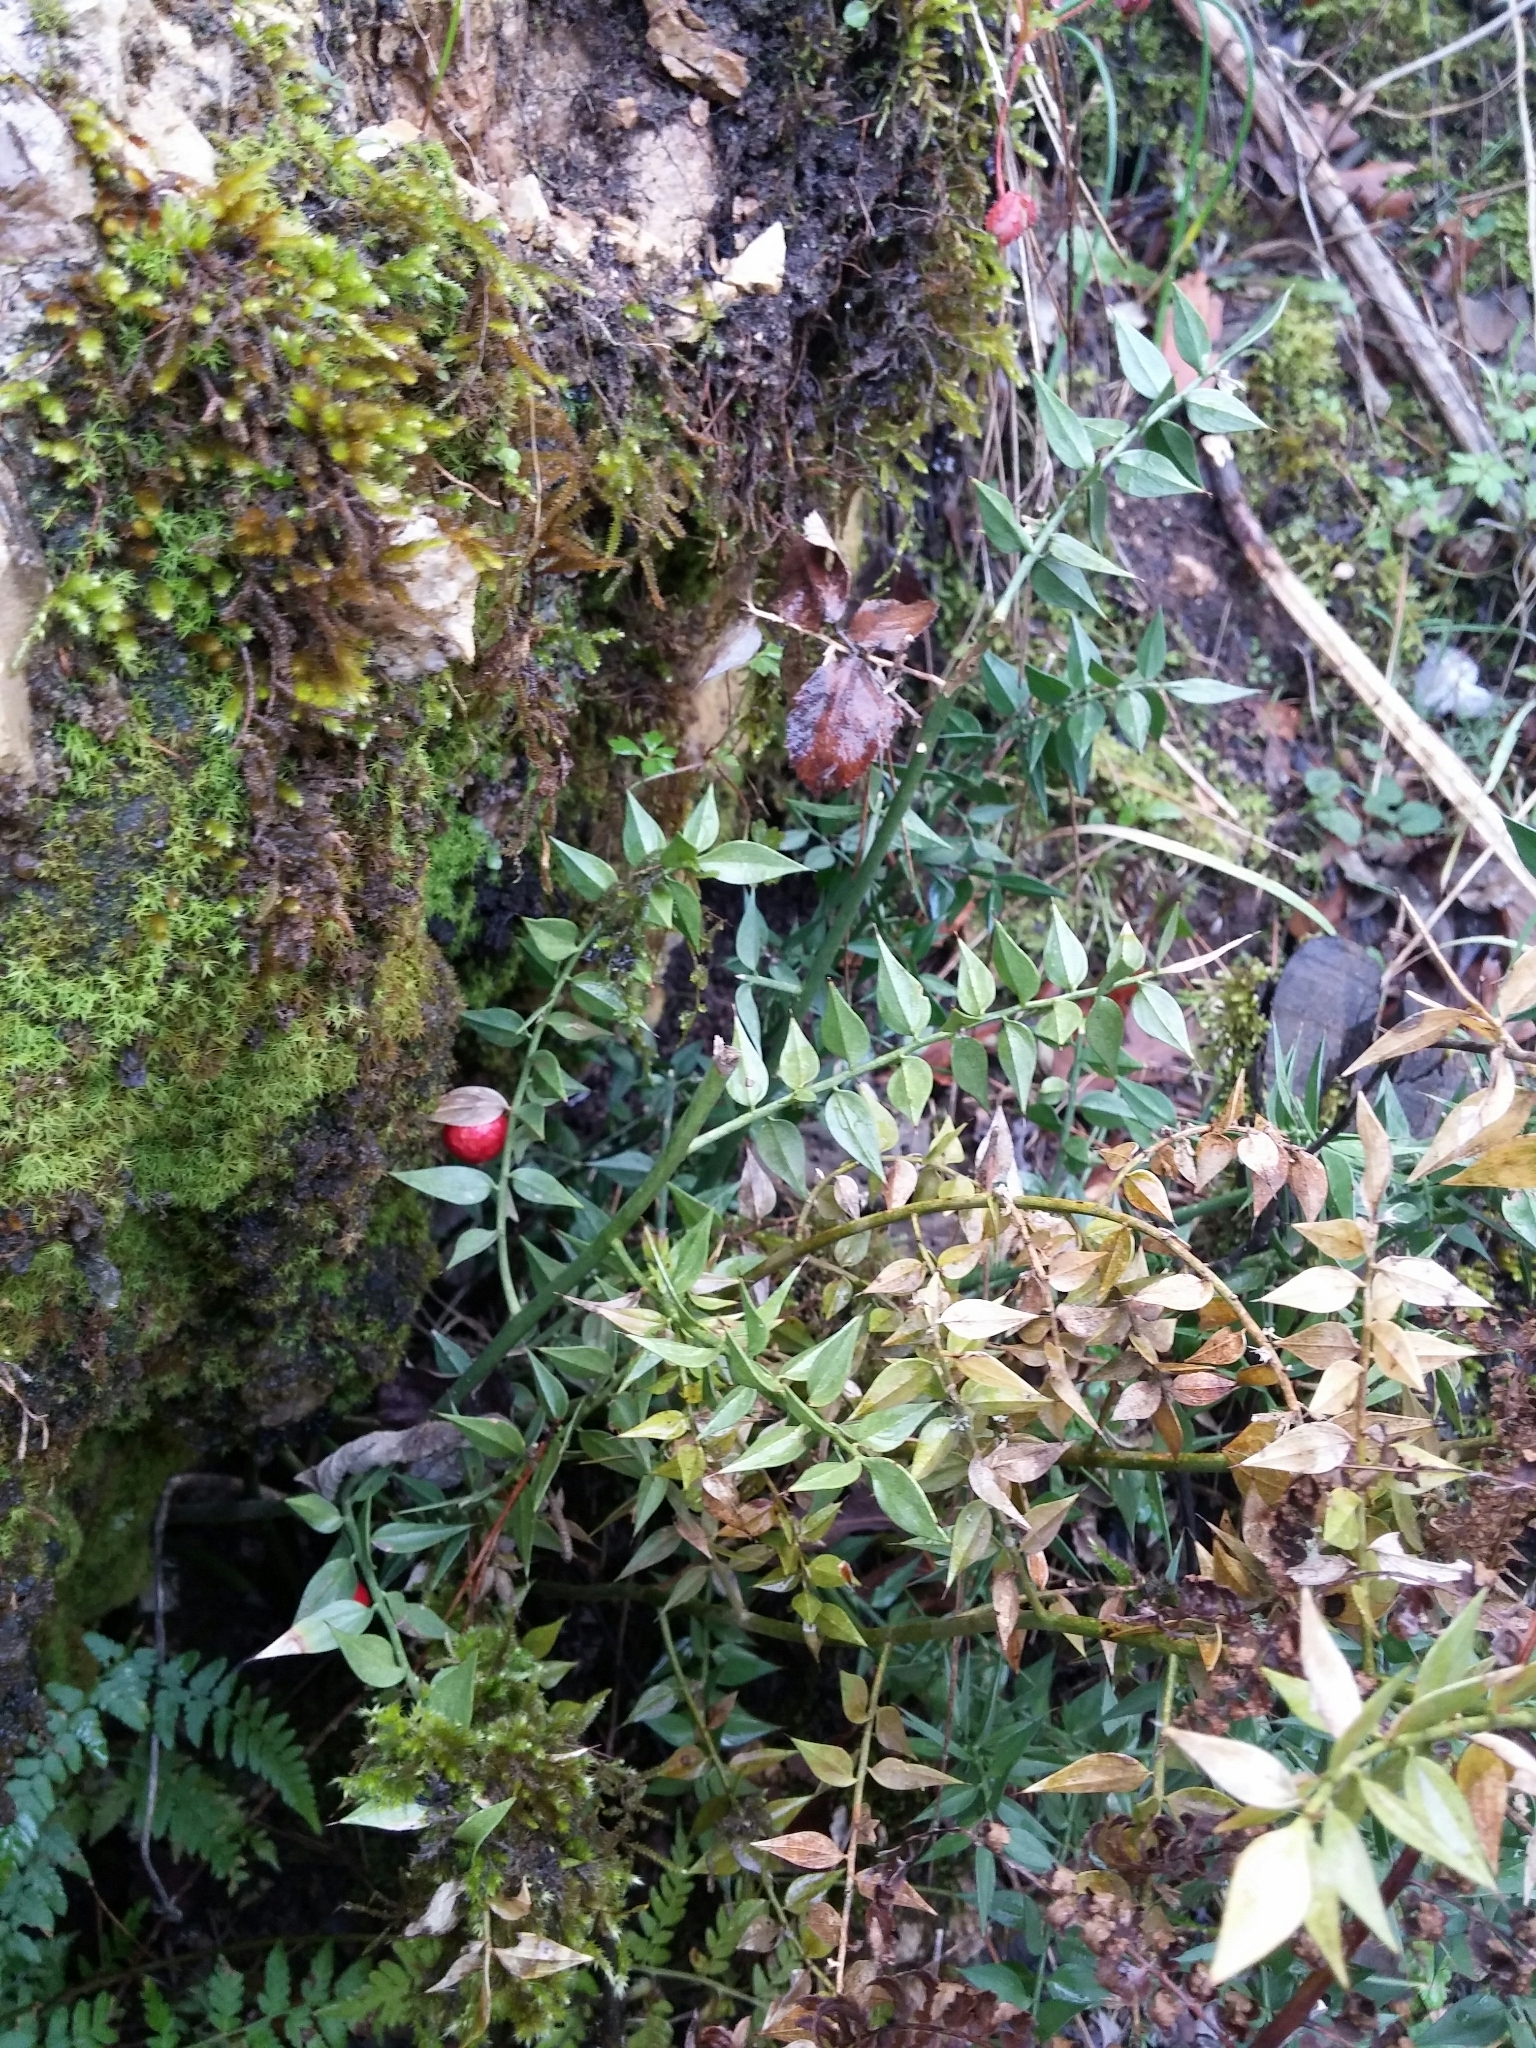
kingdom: Plantae
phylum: Tracheophyta
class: Liliopsida
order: Asparagales
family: Asparagaceae
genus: Ruscus
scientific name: Ruscus aculeatus
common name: Butcher's-broom
